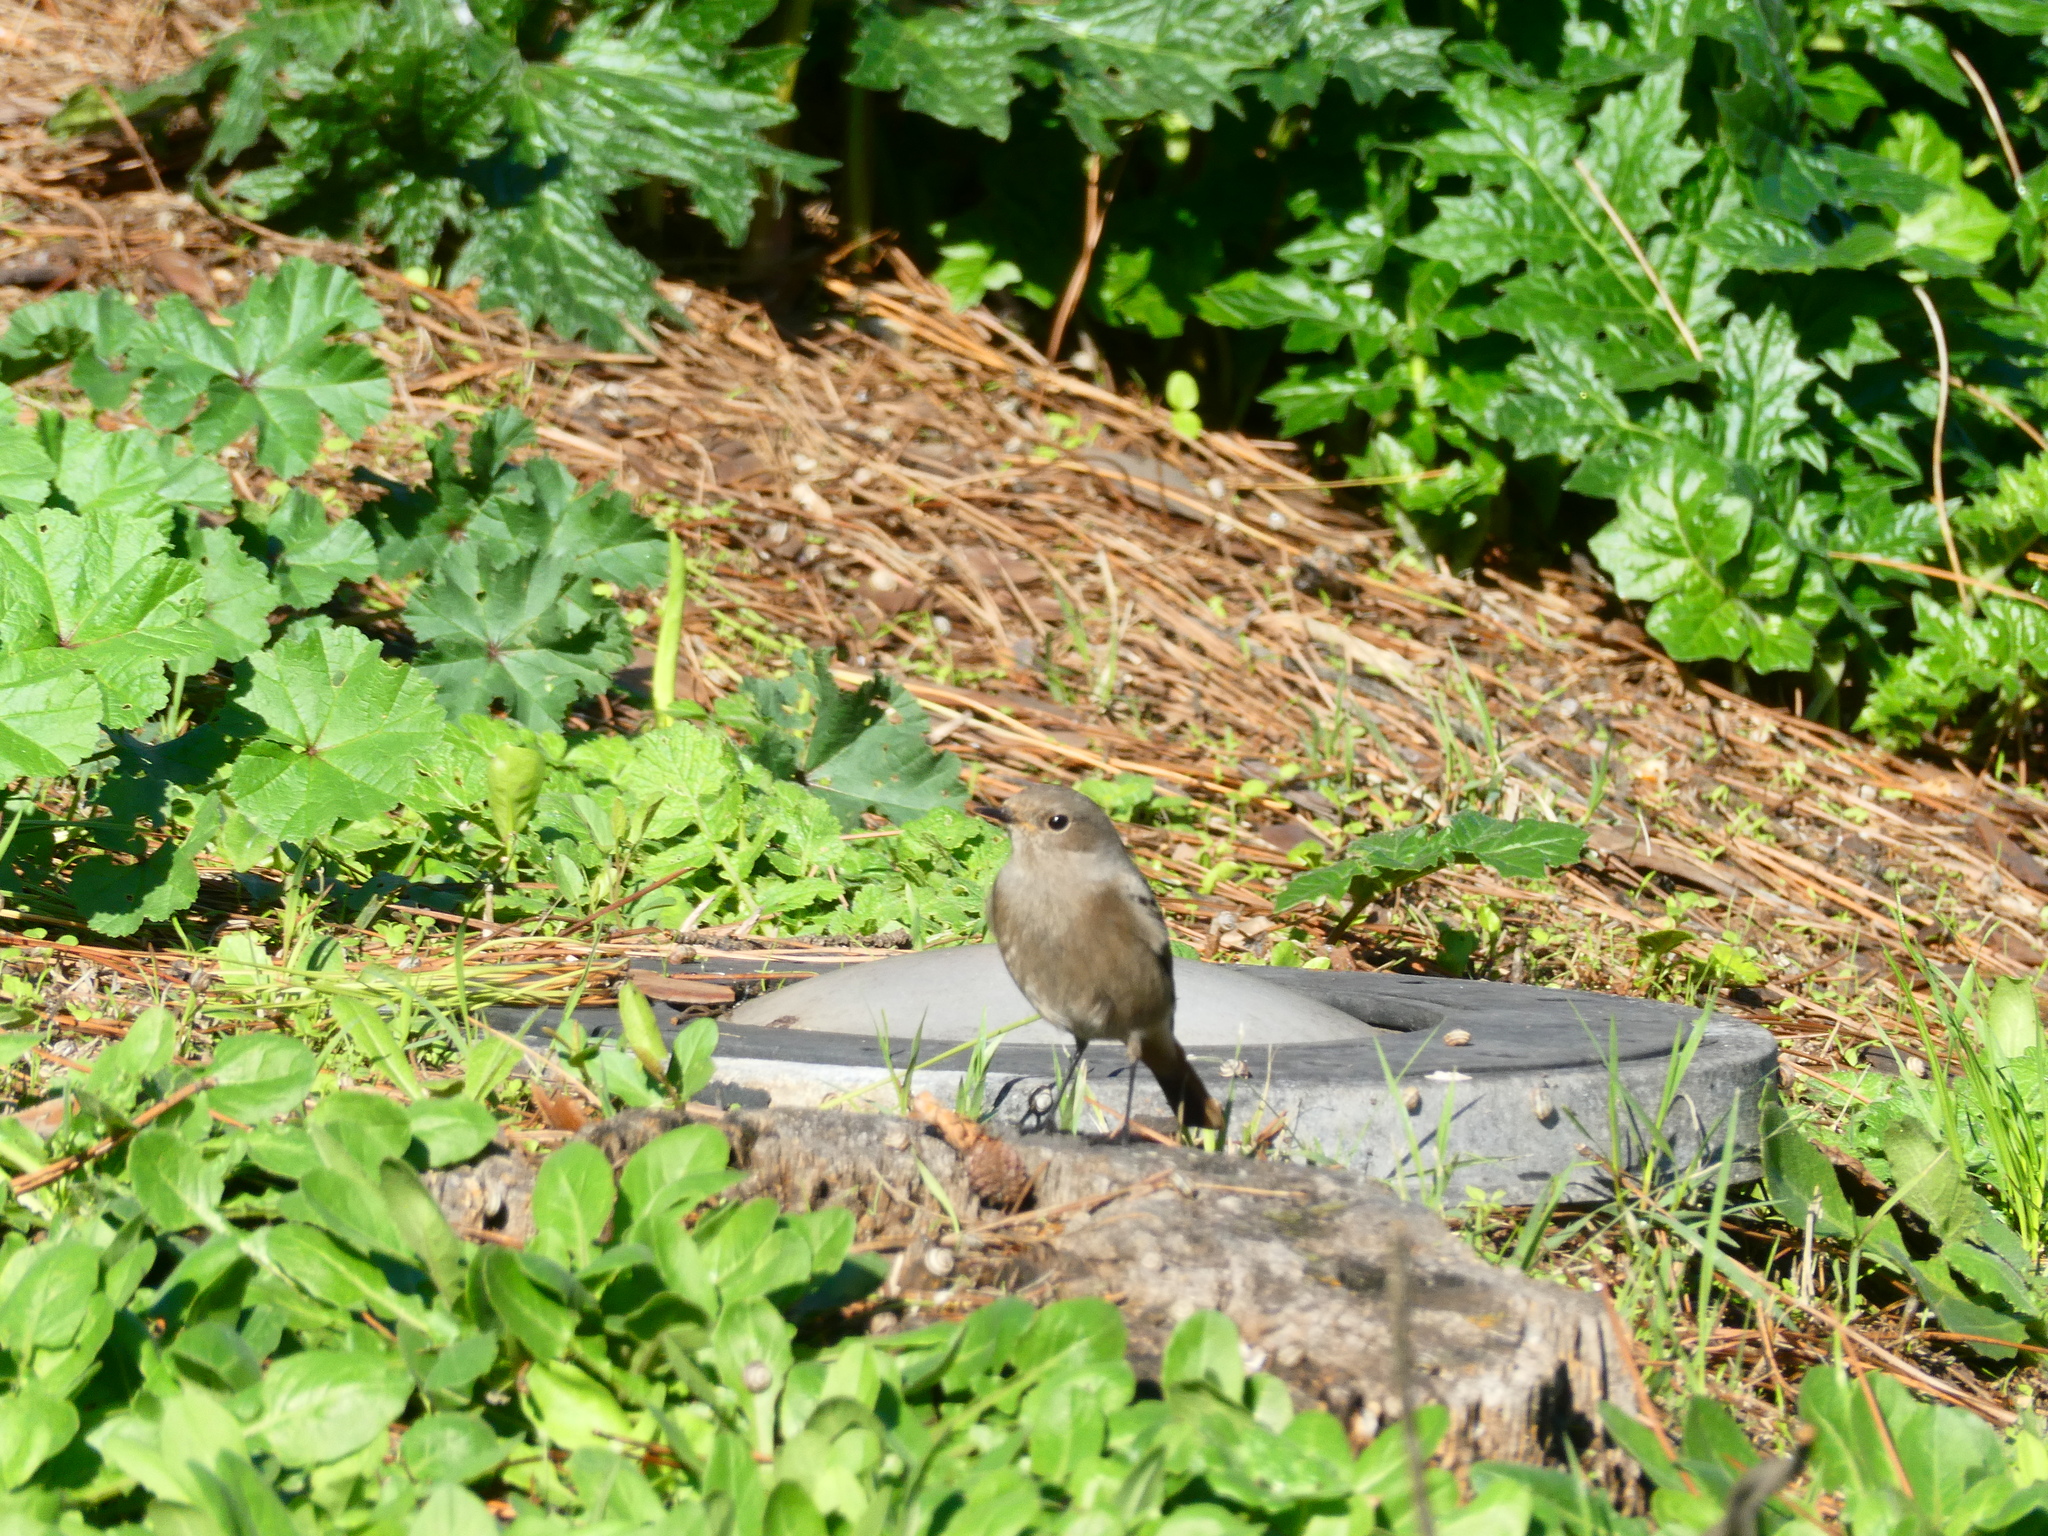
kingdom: Animalia
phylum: Chordata
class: Aves
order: Passeriformes
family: Muscicapidae
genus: Phoenicurus
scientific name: Phoenicurus ochruros
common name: Black redstart
